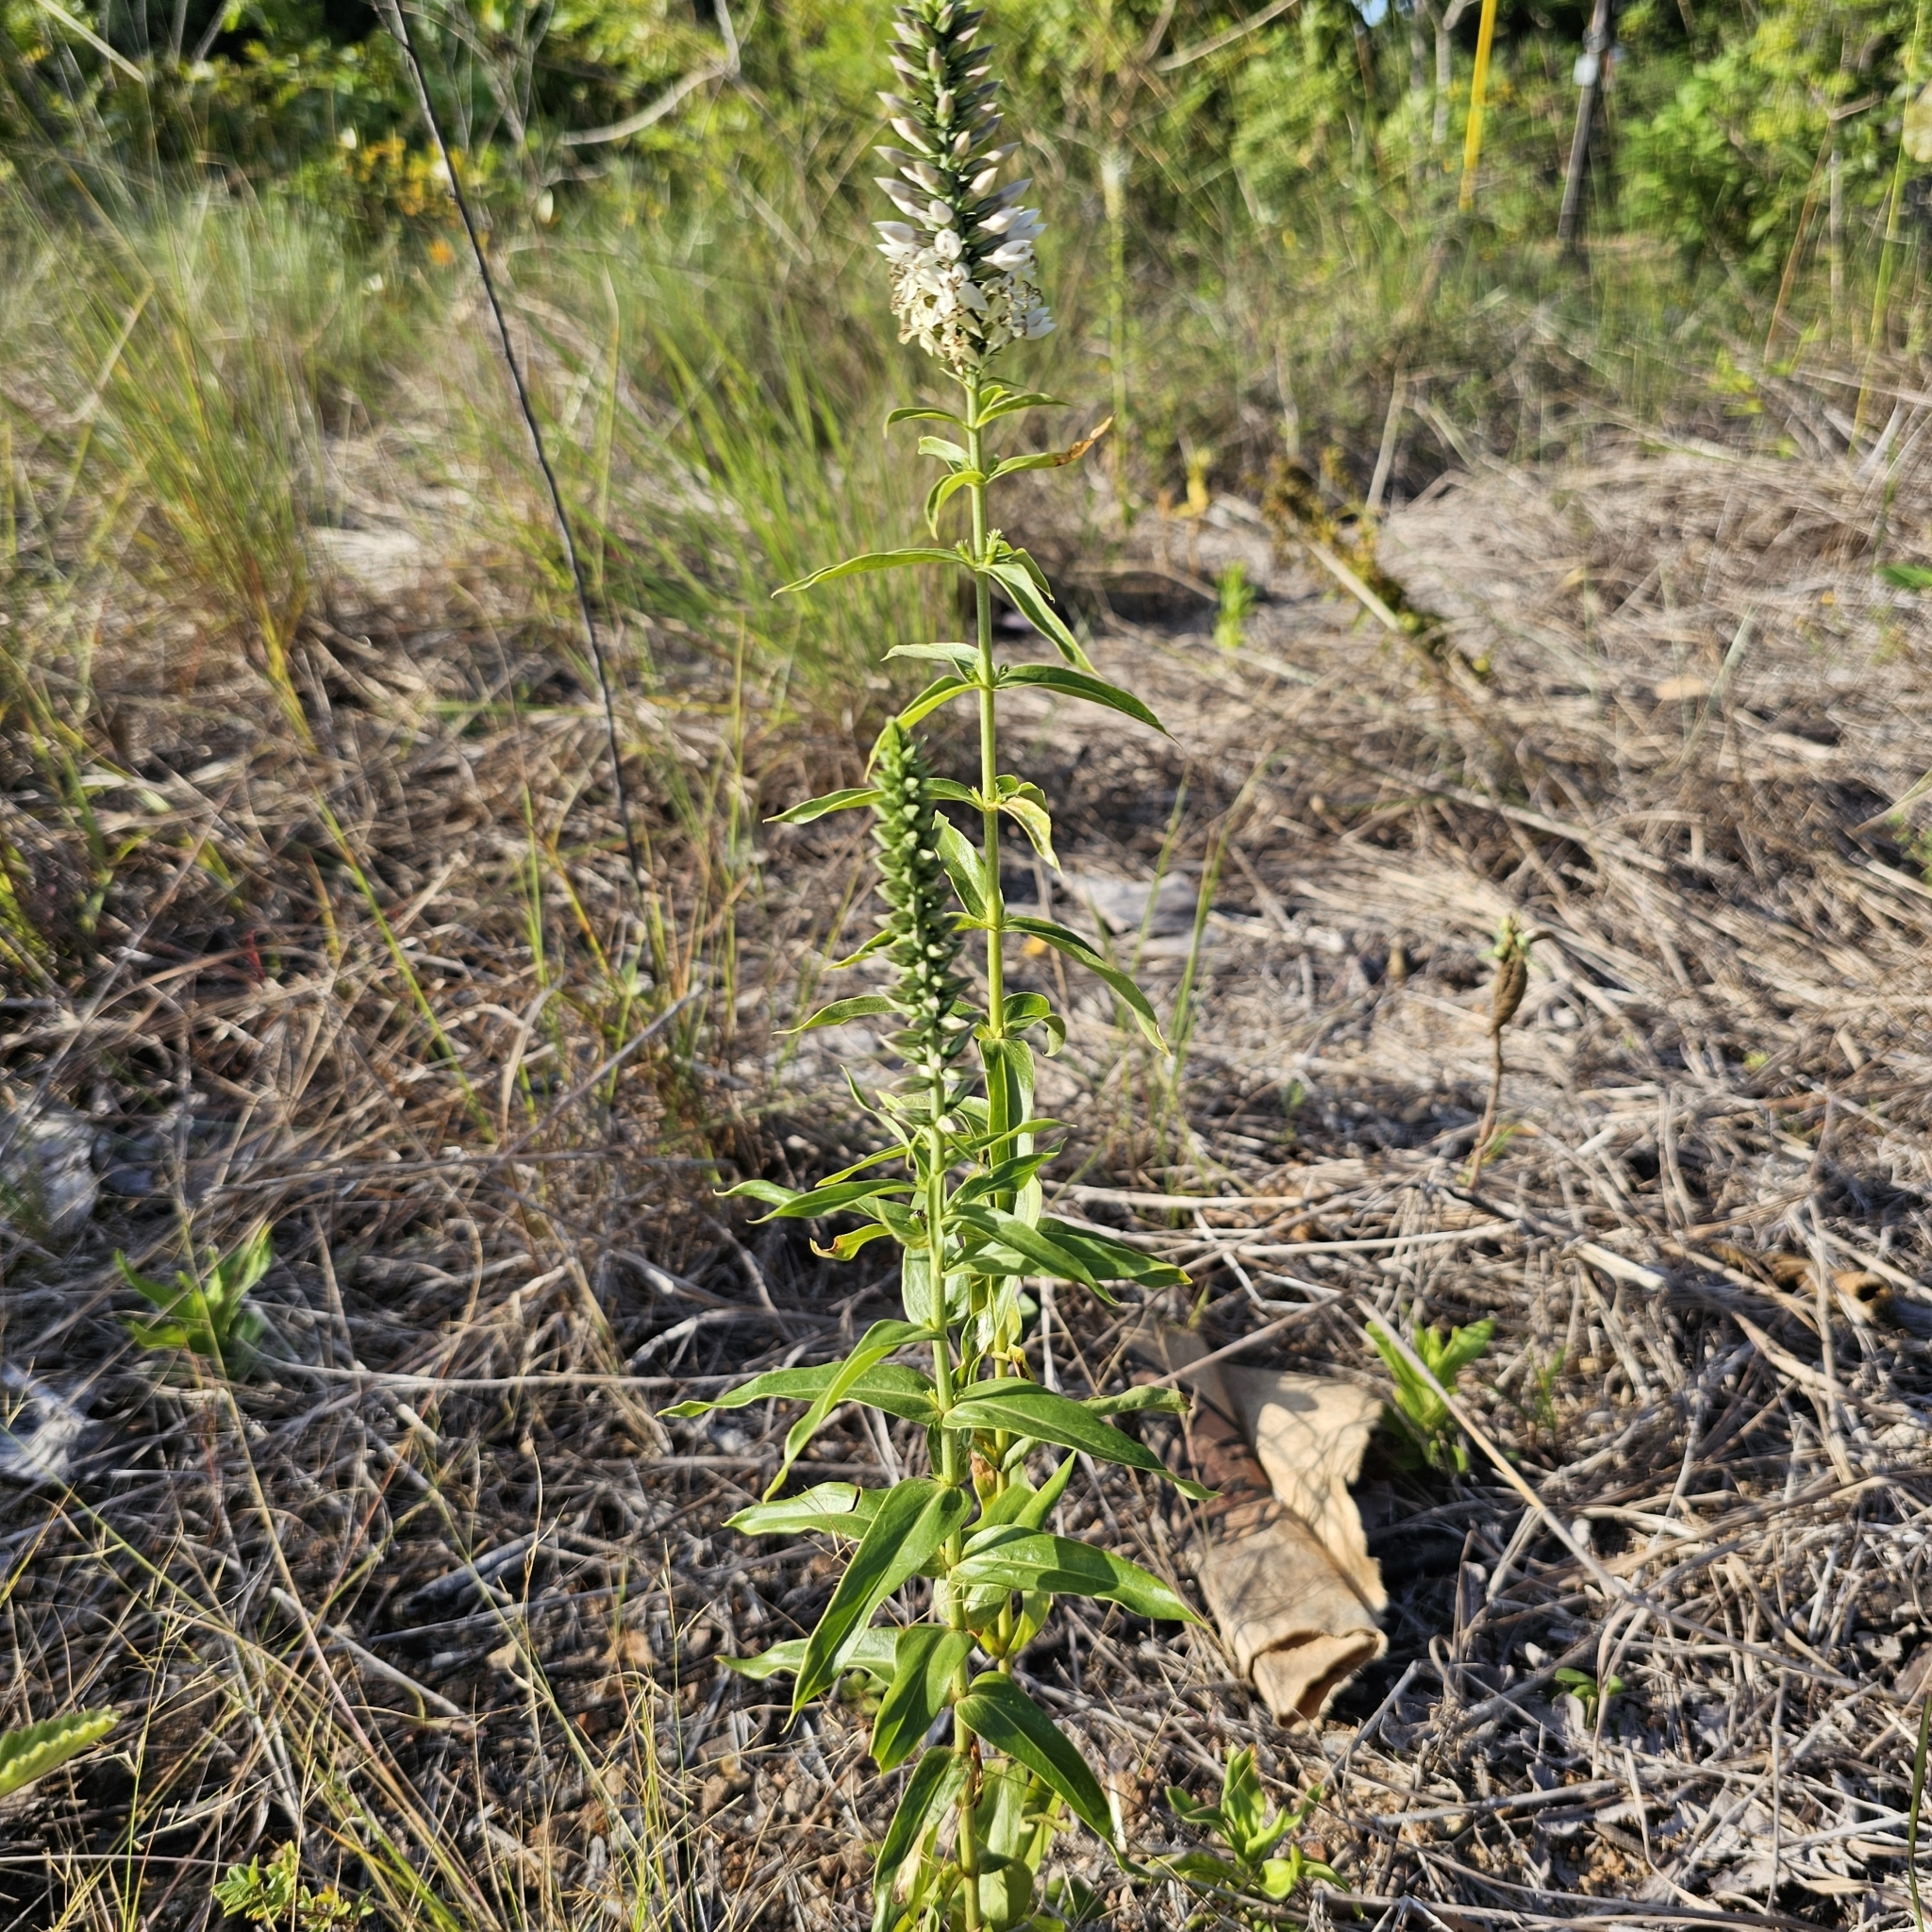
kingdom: Plantae
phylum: Tracheophyta
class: Magnoliopsida
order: Gentianales
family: Gentianaceae
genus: Coutoubea
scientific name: Coutoubea spicata
